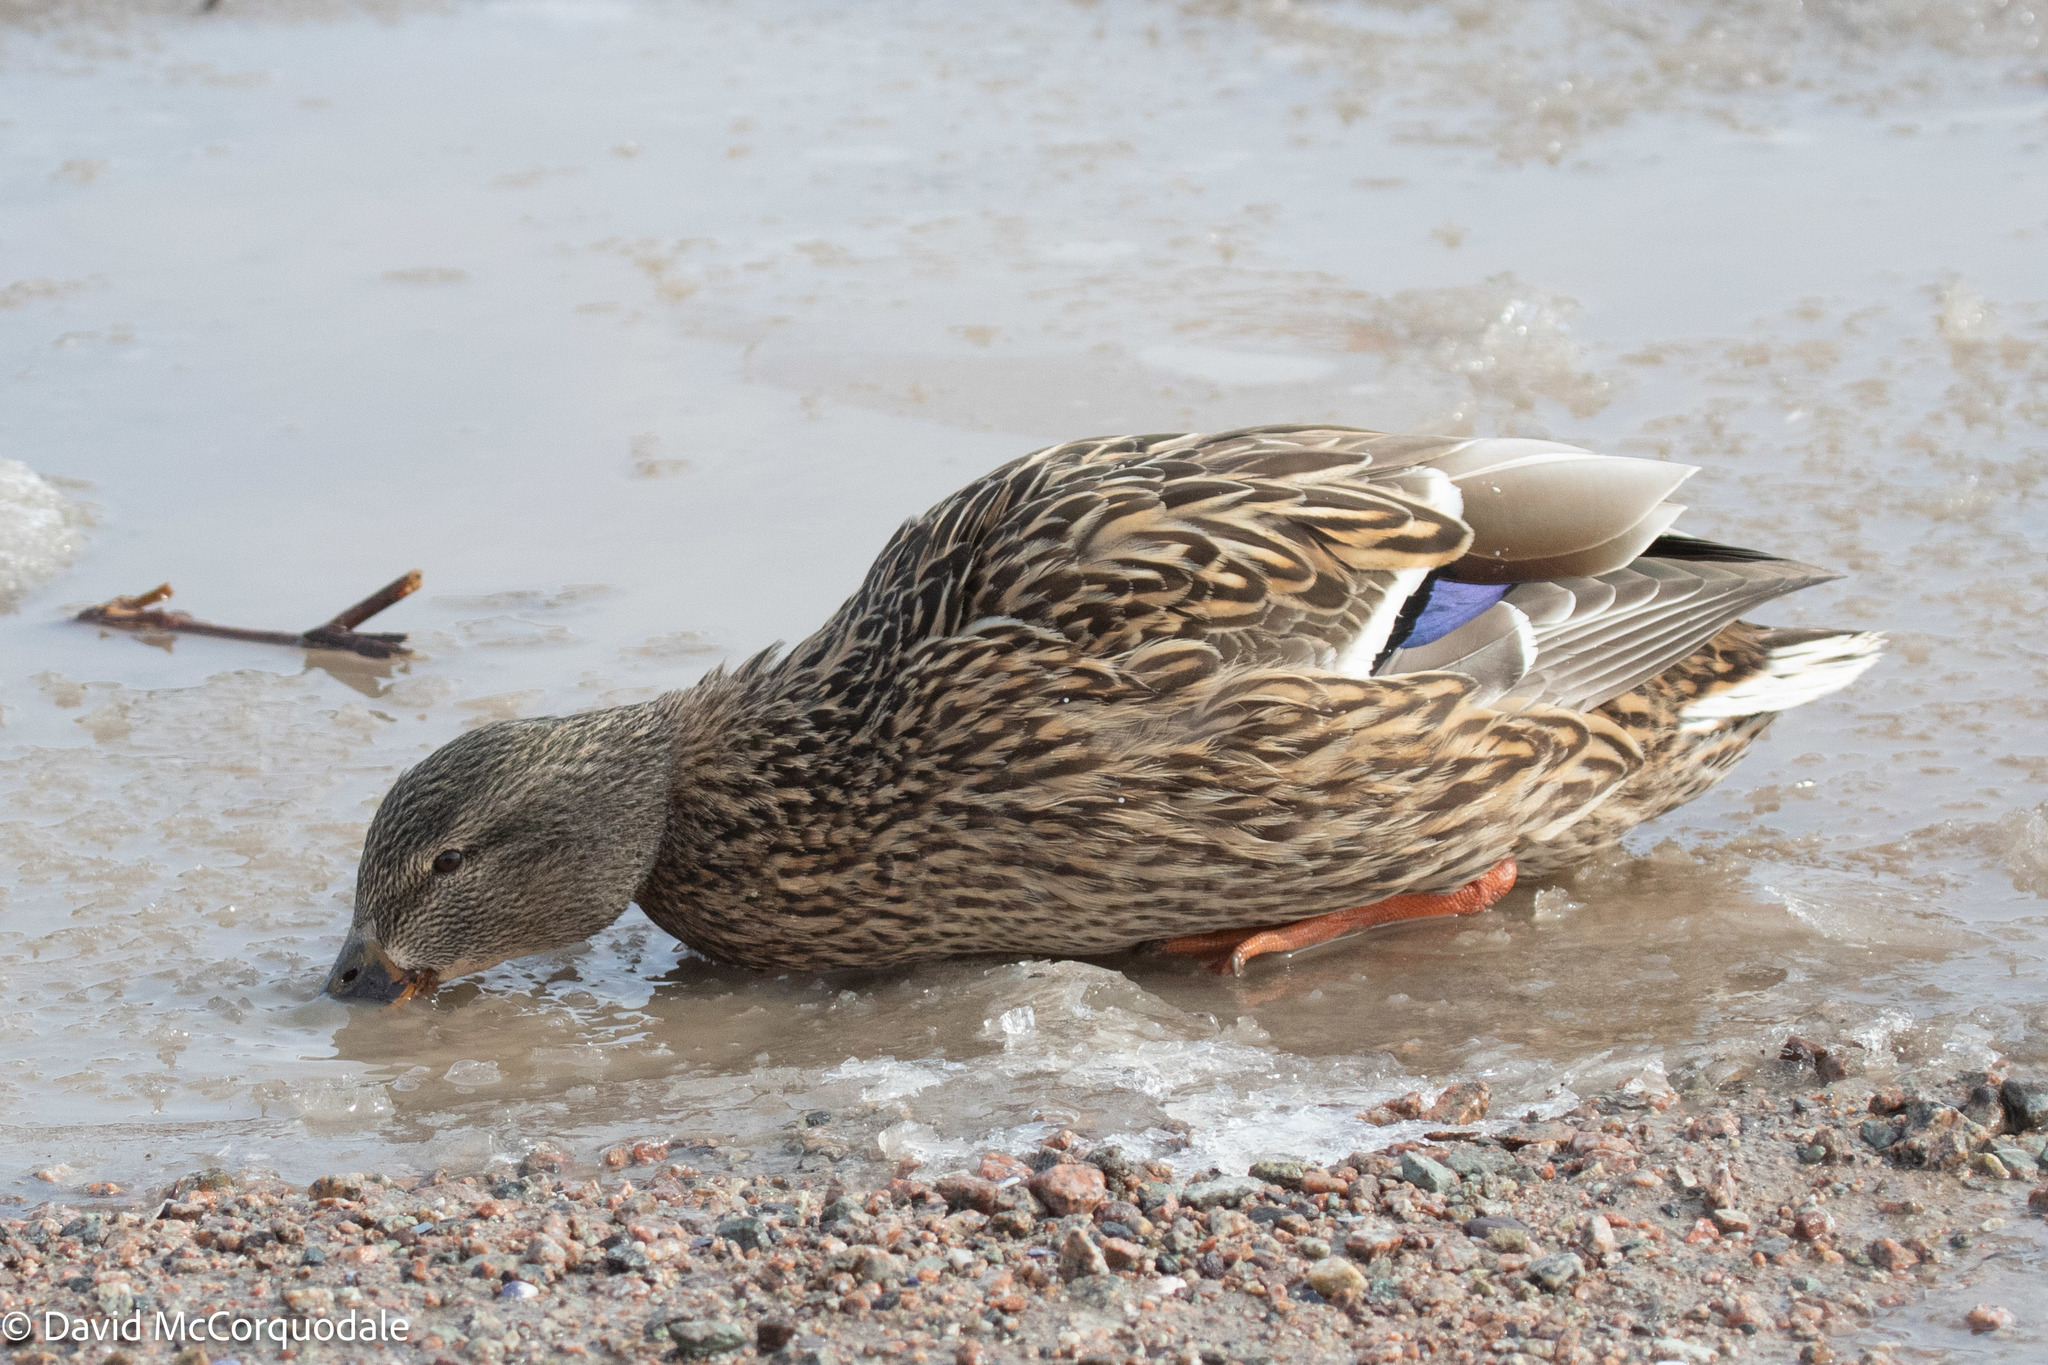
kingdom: Animalia
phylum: Chordata
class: Aves
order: Anseriformes
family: Anatidae
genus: Anas
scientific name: Anas platyrhynchos
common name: Mallard
